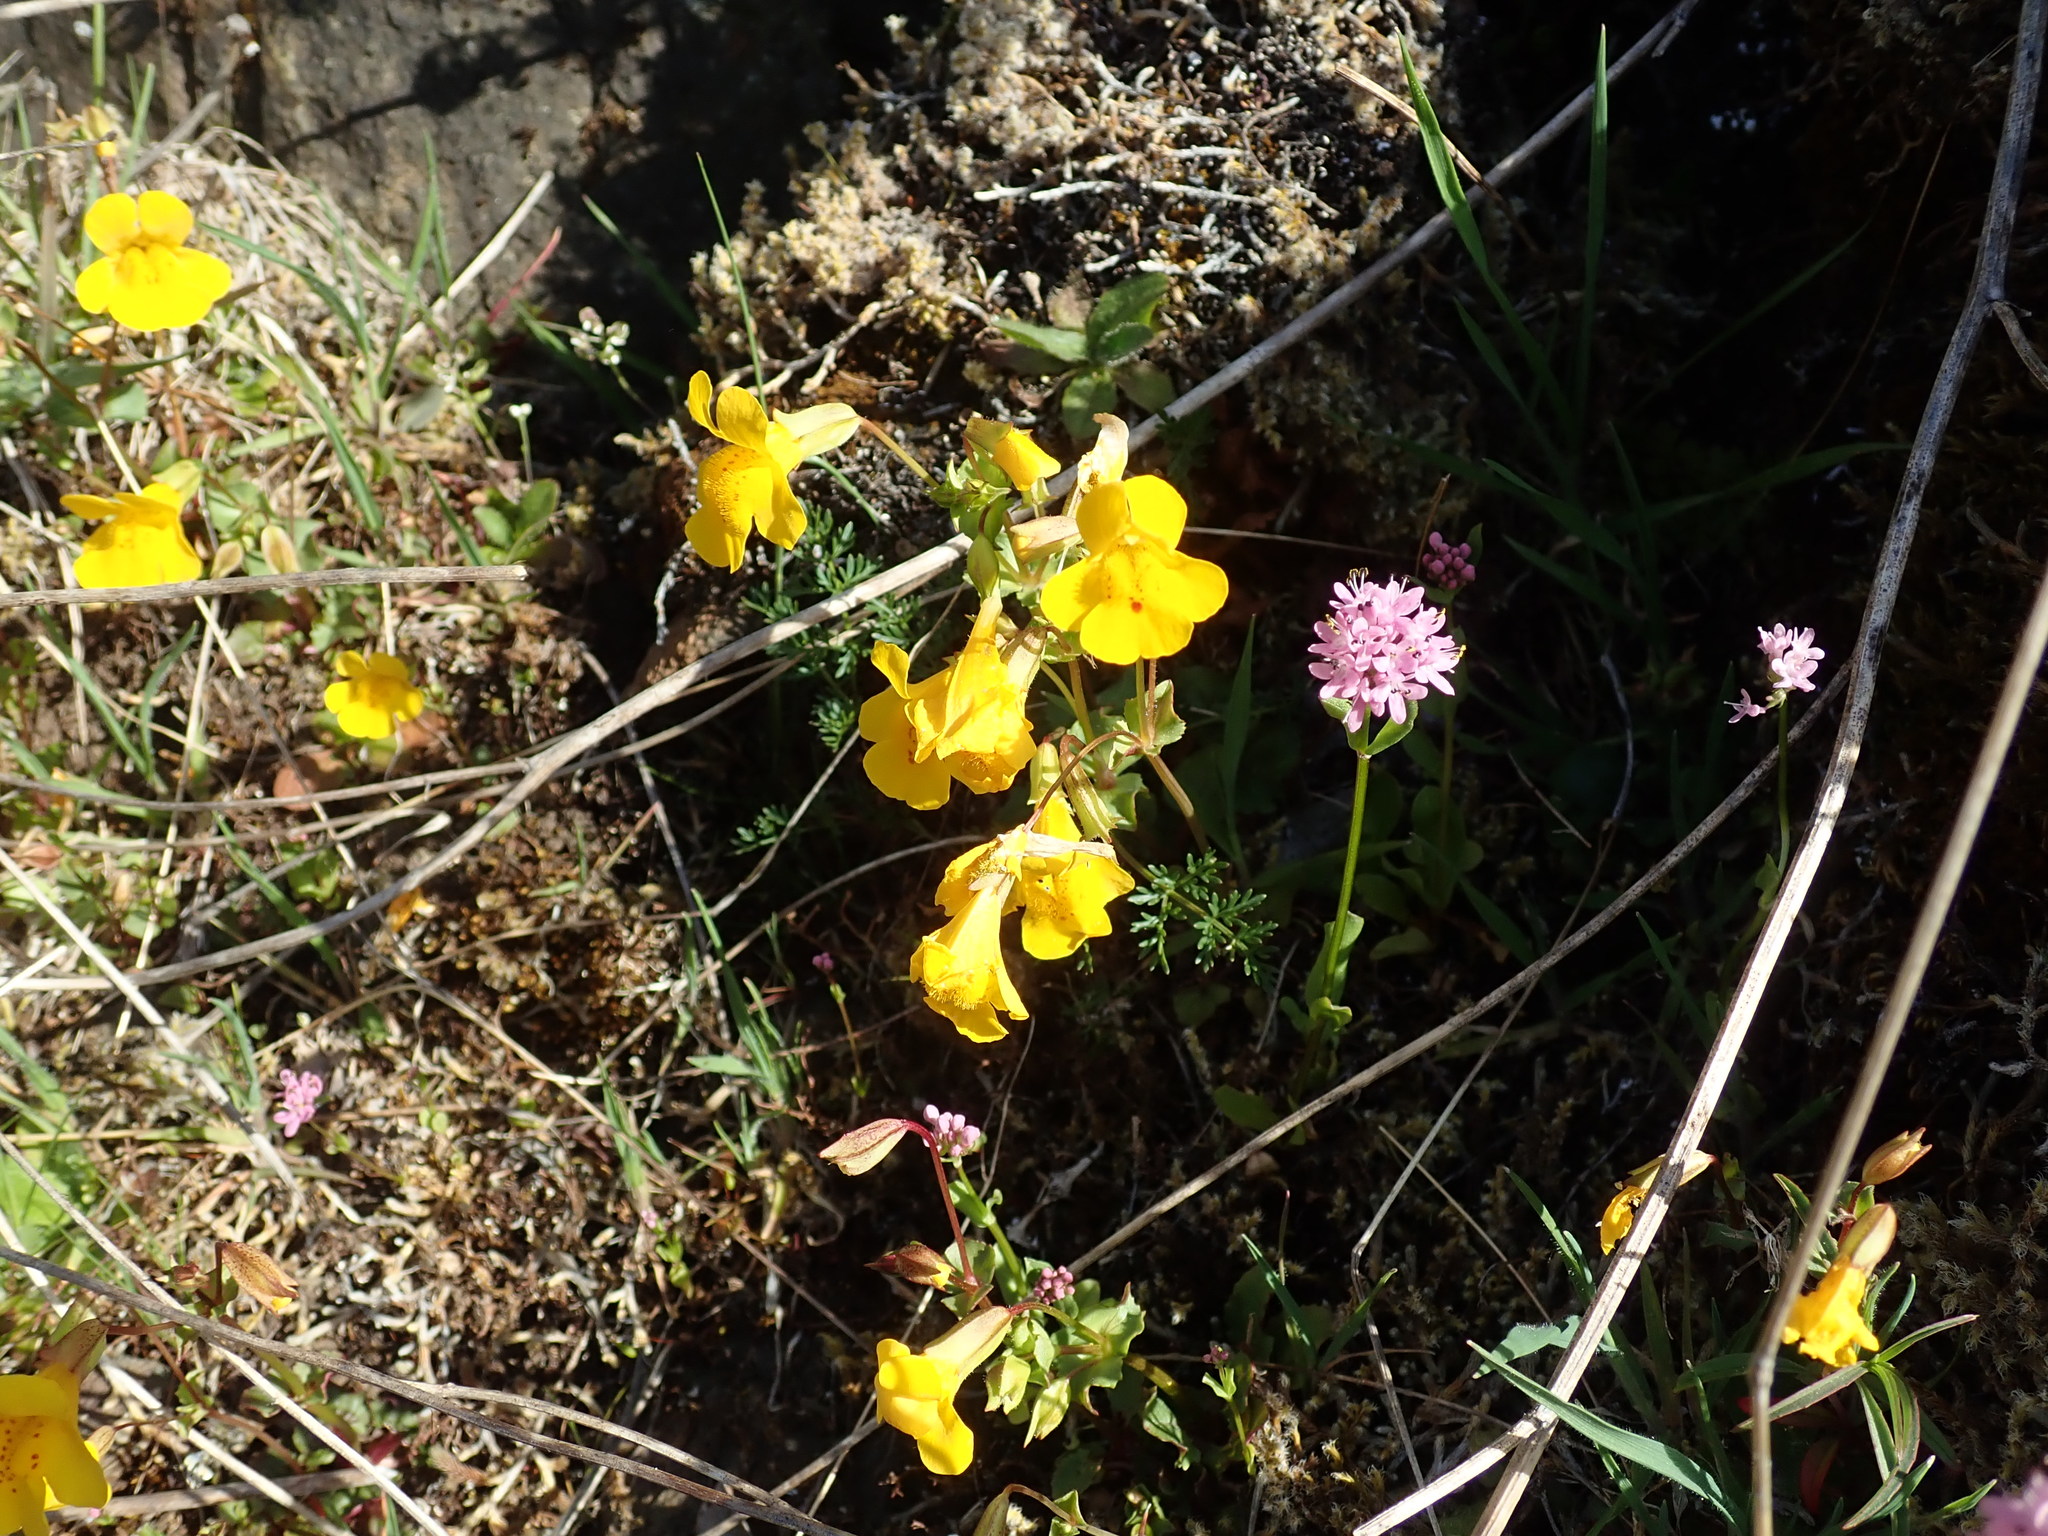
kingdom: Plantae
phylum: Tracheophyta
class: Magnoliopsida
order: Lamiales
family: Phrymaceae
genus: Erythranthe
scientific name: Erythranthe guttata
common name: Monkeyflower
